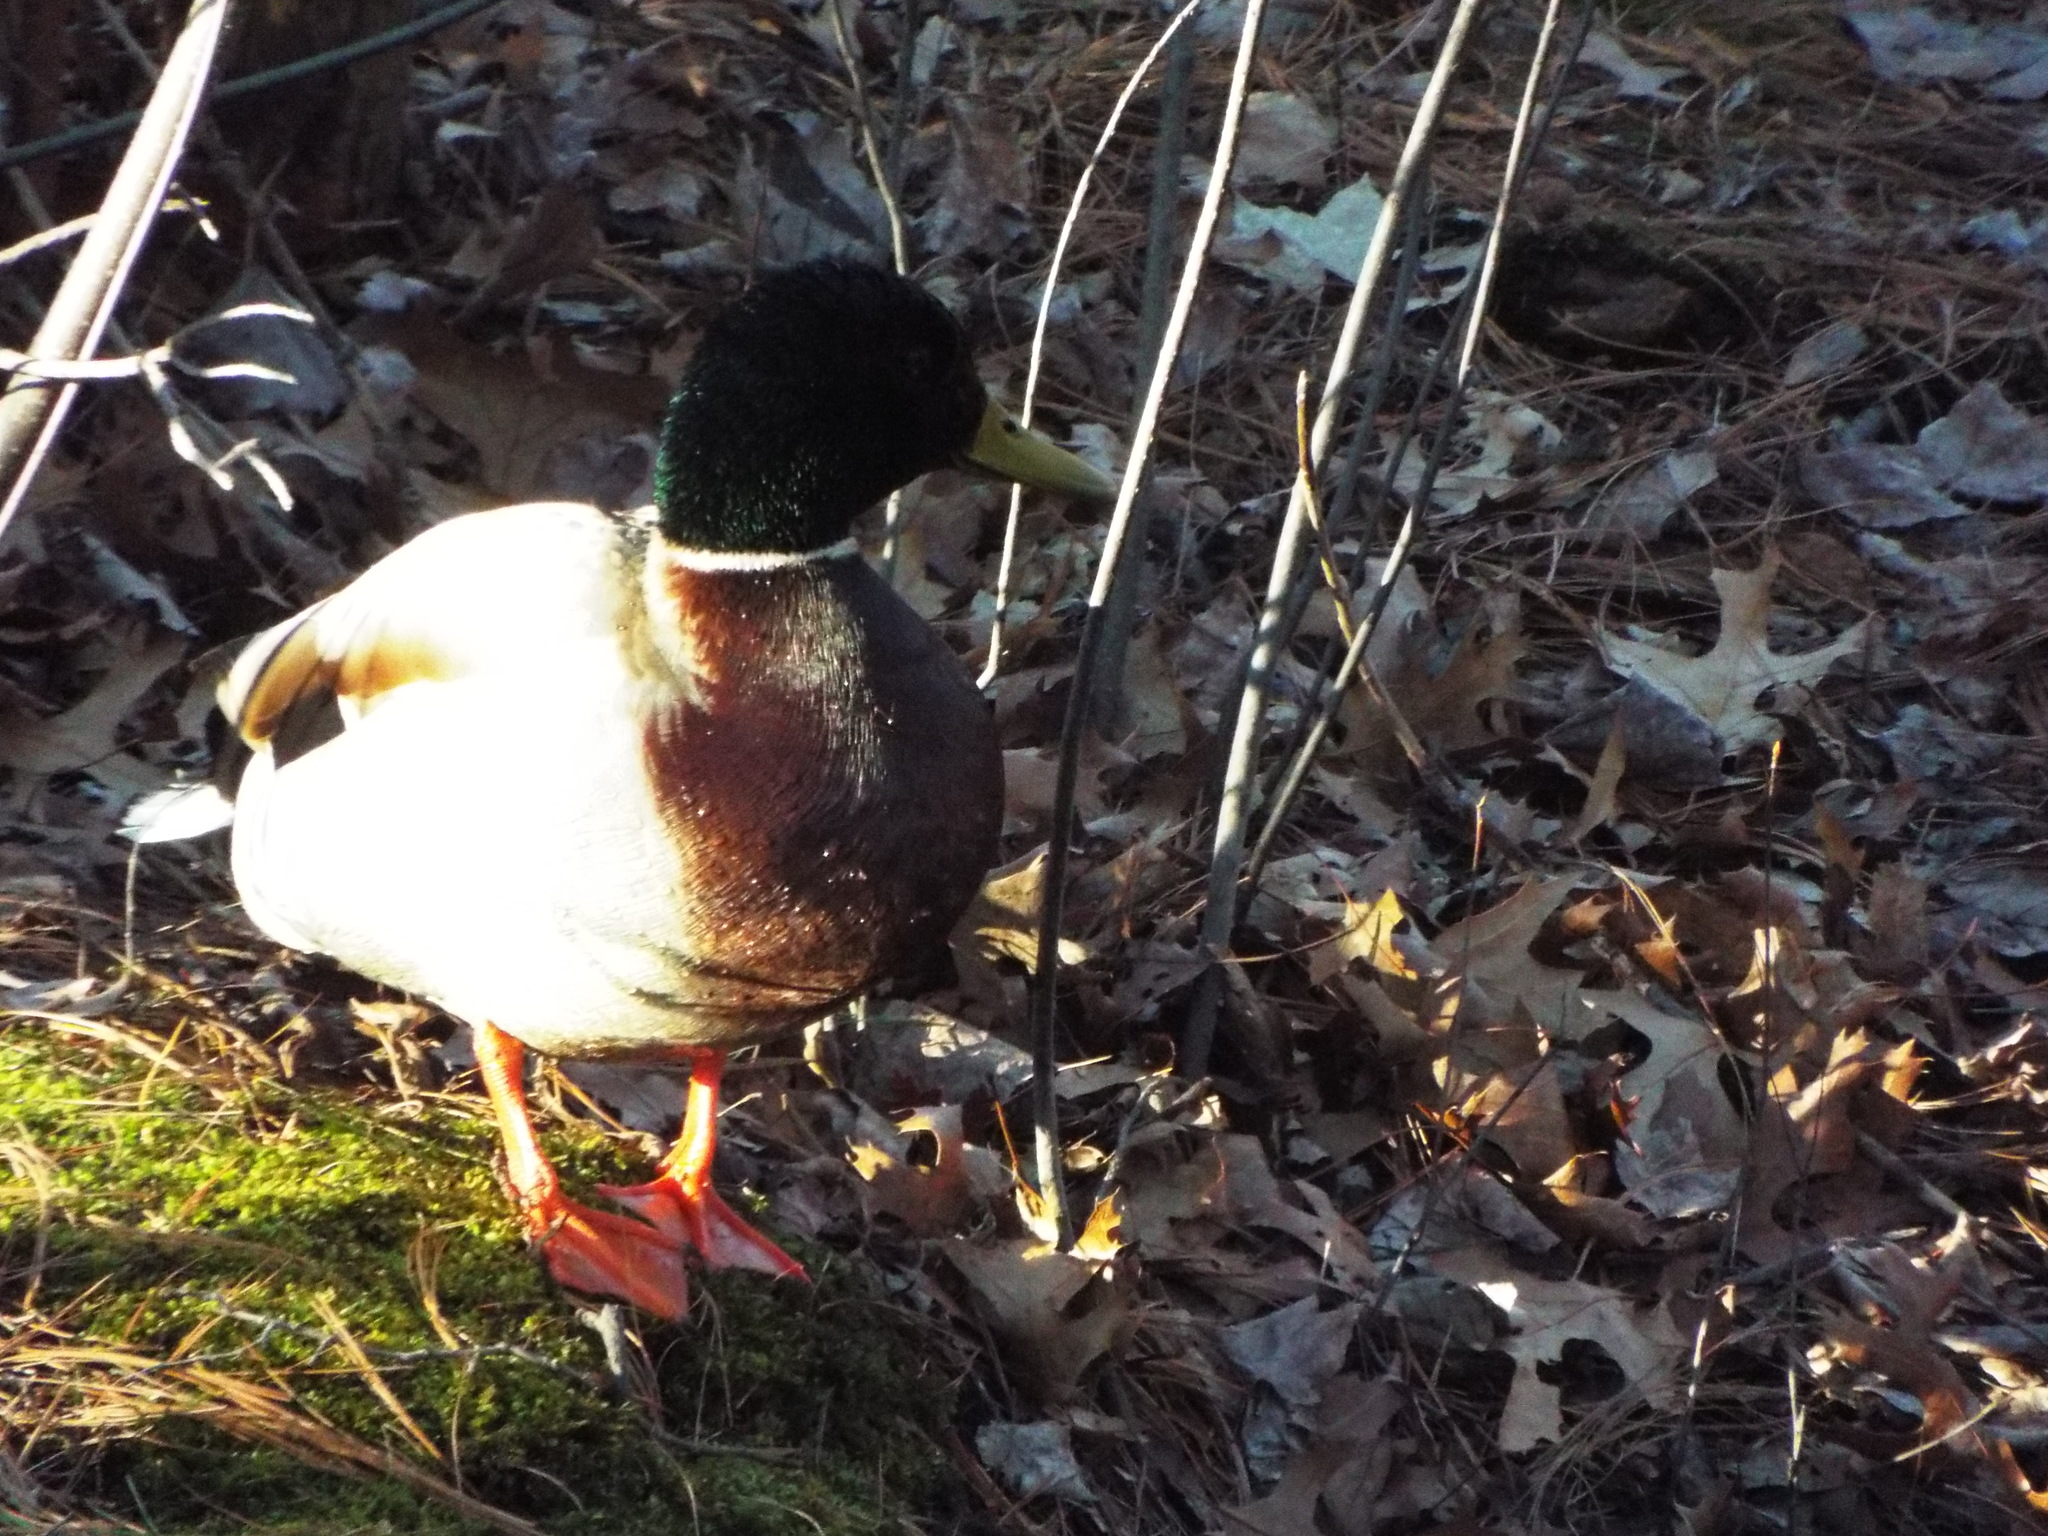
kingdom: Animalia
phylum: Chordata
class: Aves
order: Anseriformes
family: Anatidae
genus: Anas
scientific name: Anas platyrhynchos
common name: Mallard
